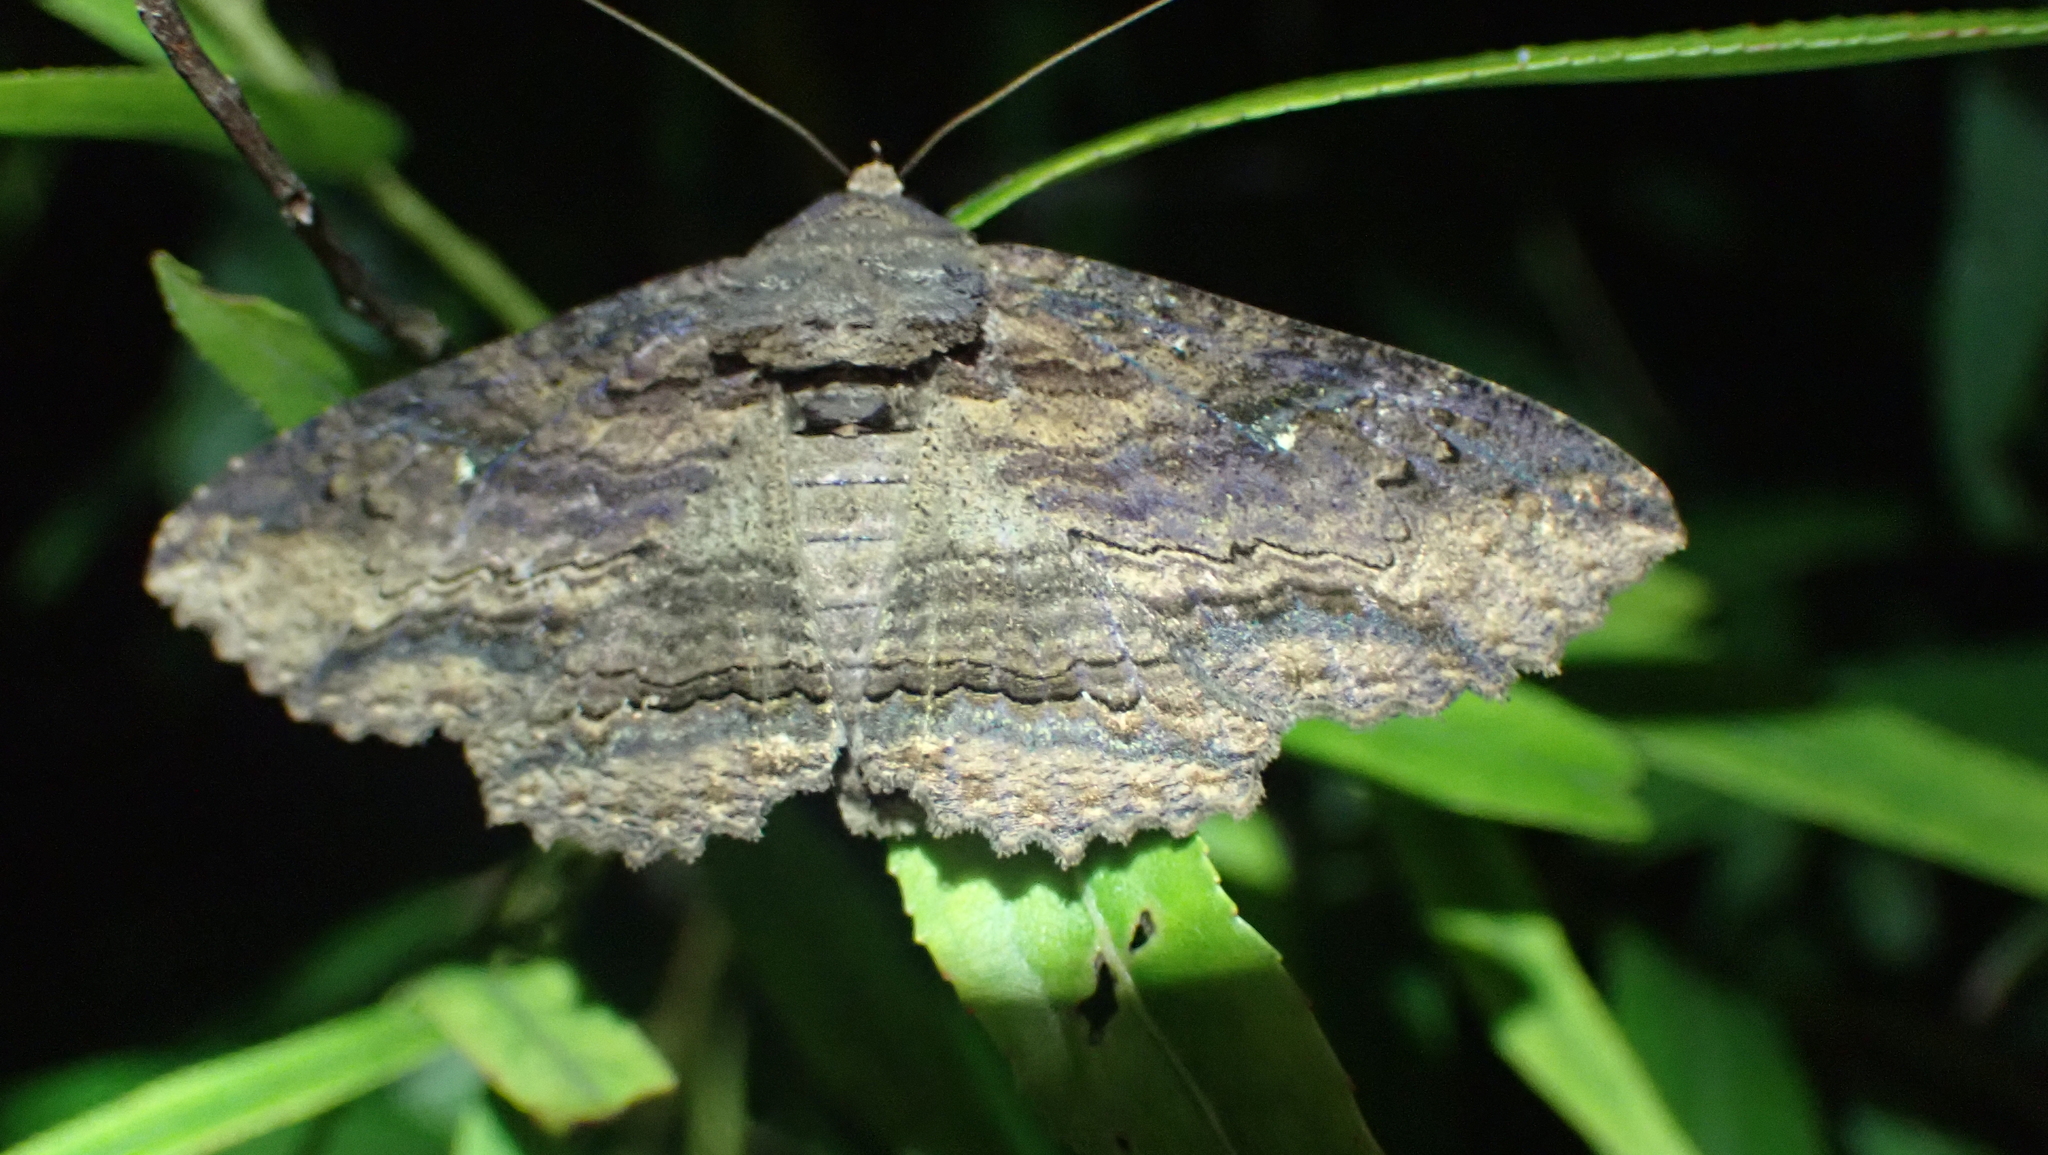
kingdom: Animalia
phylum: Arthropoda
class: Insecta
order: Lepidoptera
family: Erebidae
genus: Zale
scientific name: Zale lunata
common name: Lunate zale moth
